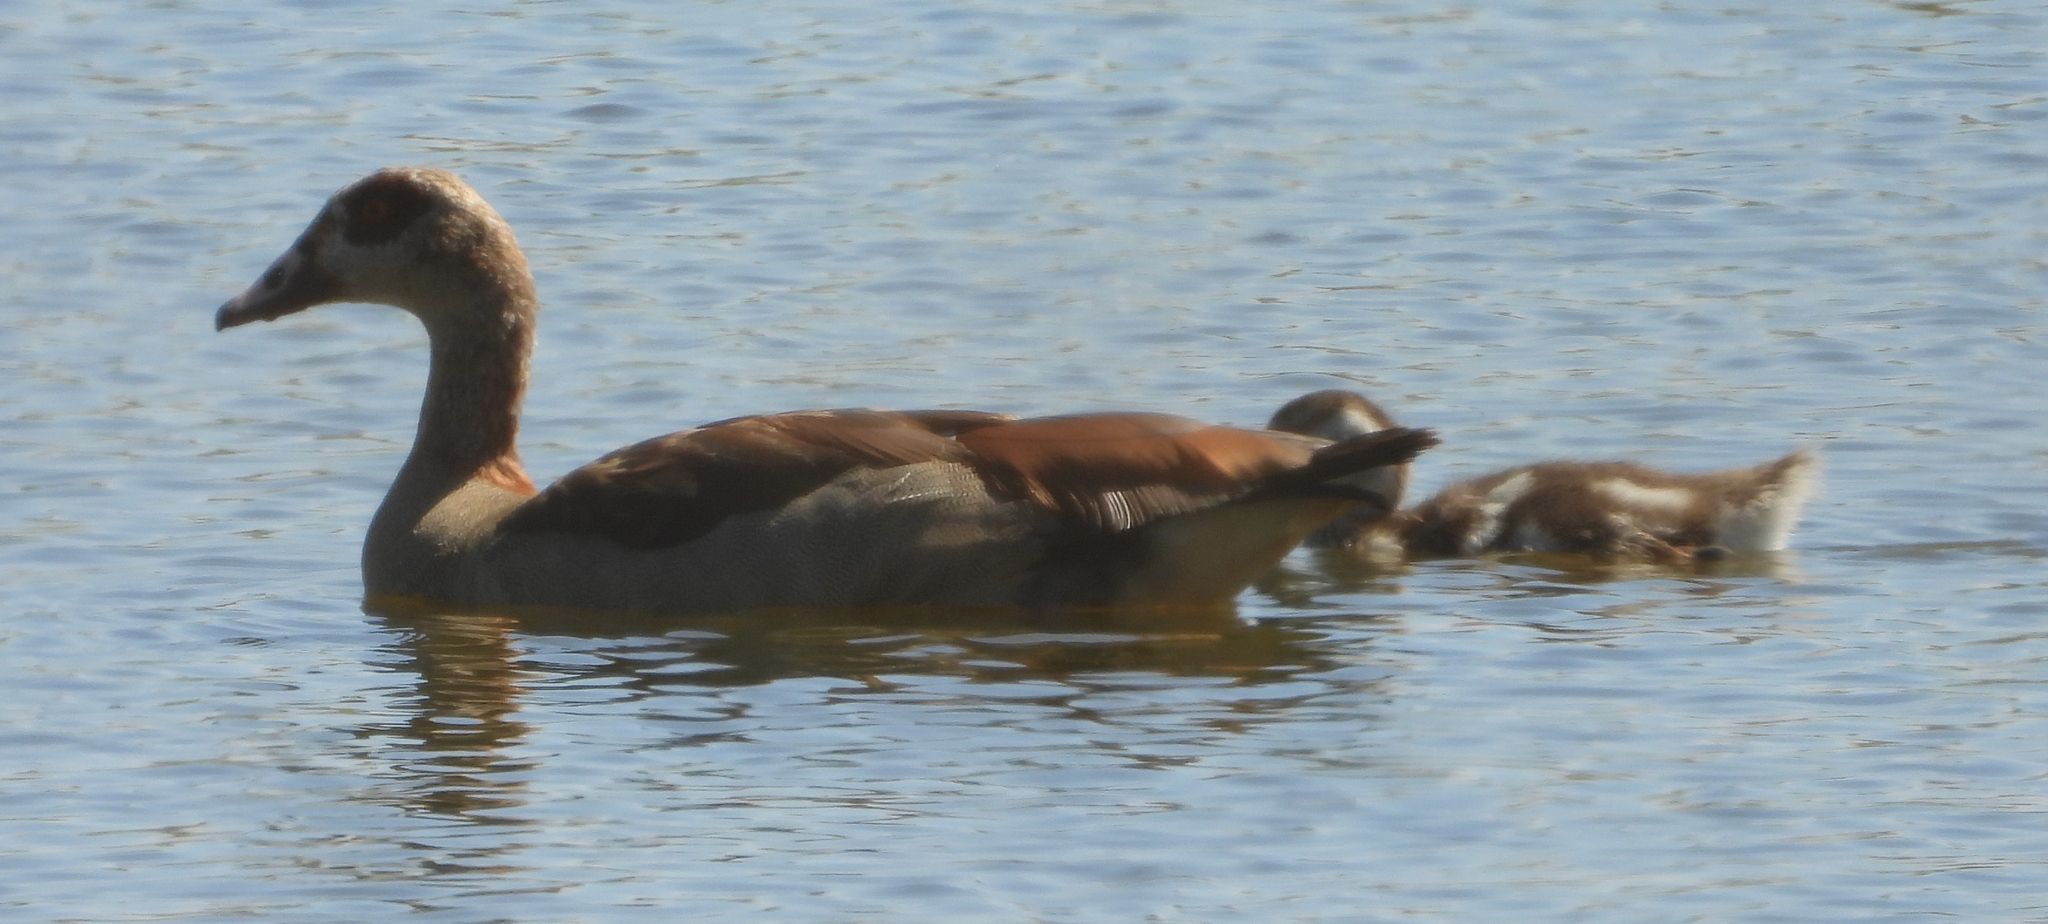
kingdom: Animalia
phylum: Chordata
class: Aves
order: Anseriformes
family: Anatidae
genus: Alopochen
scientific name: Alopochen aegyptiaca
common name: Egyptian goose
